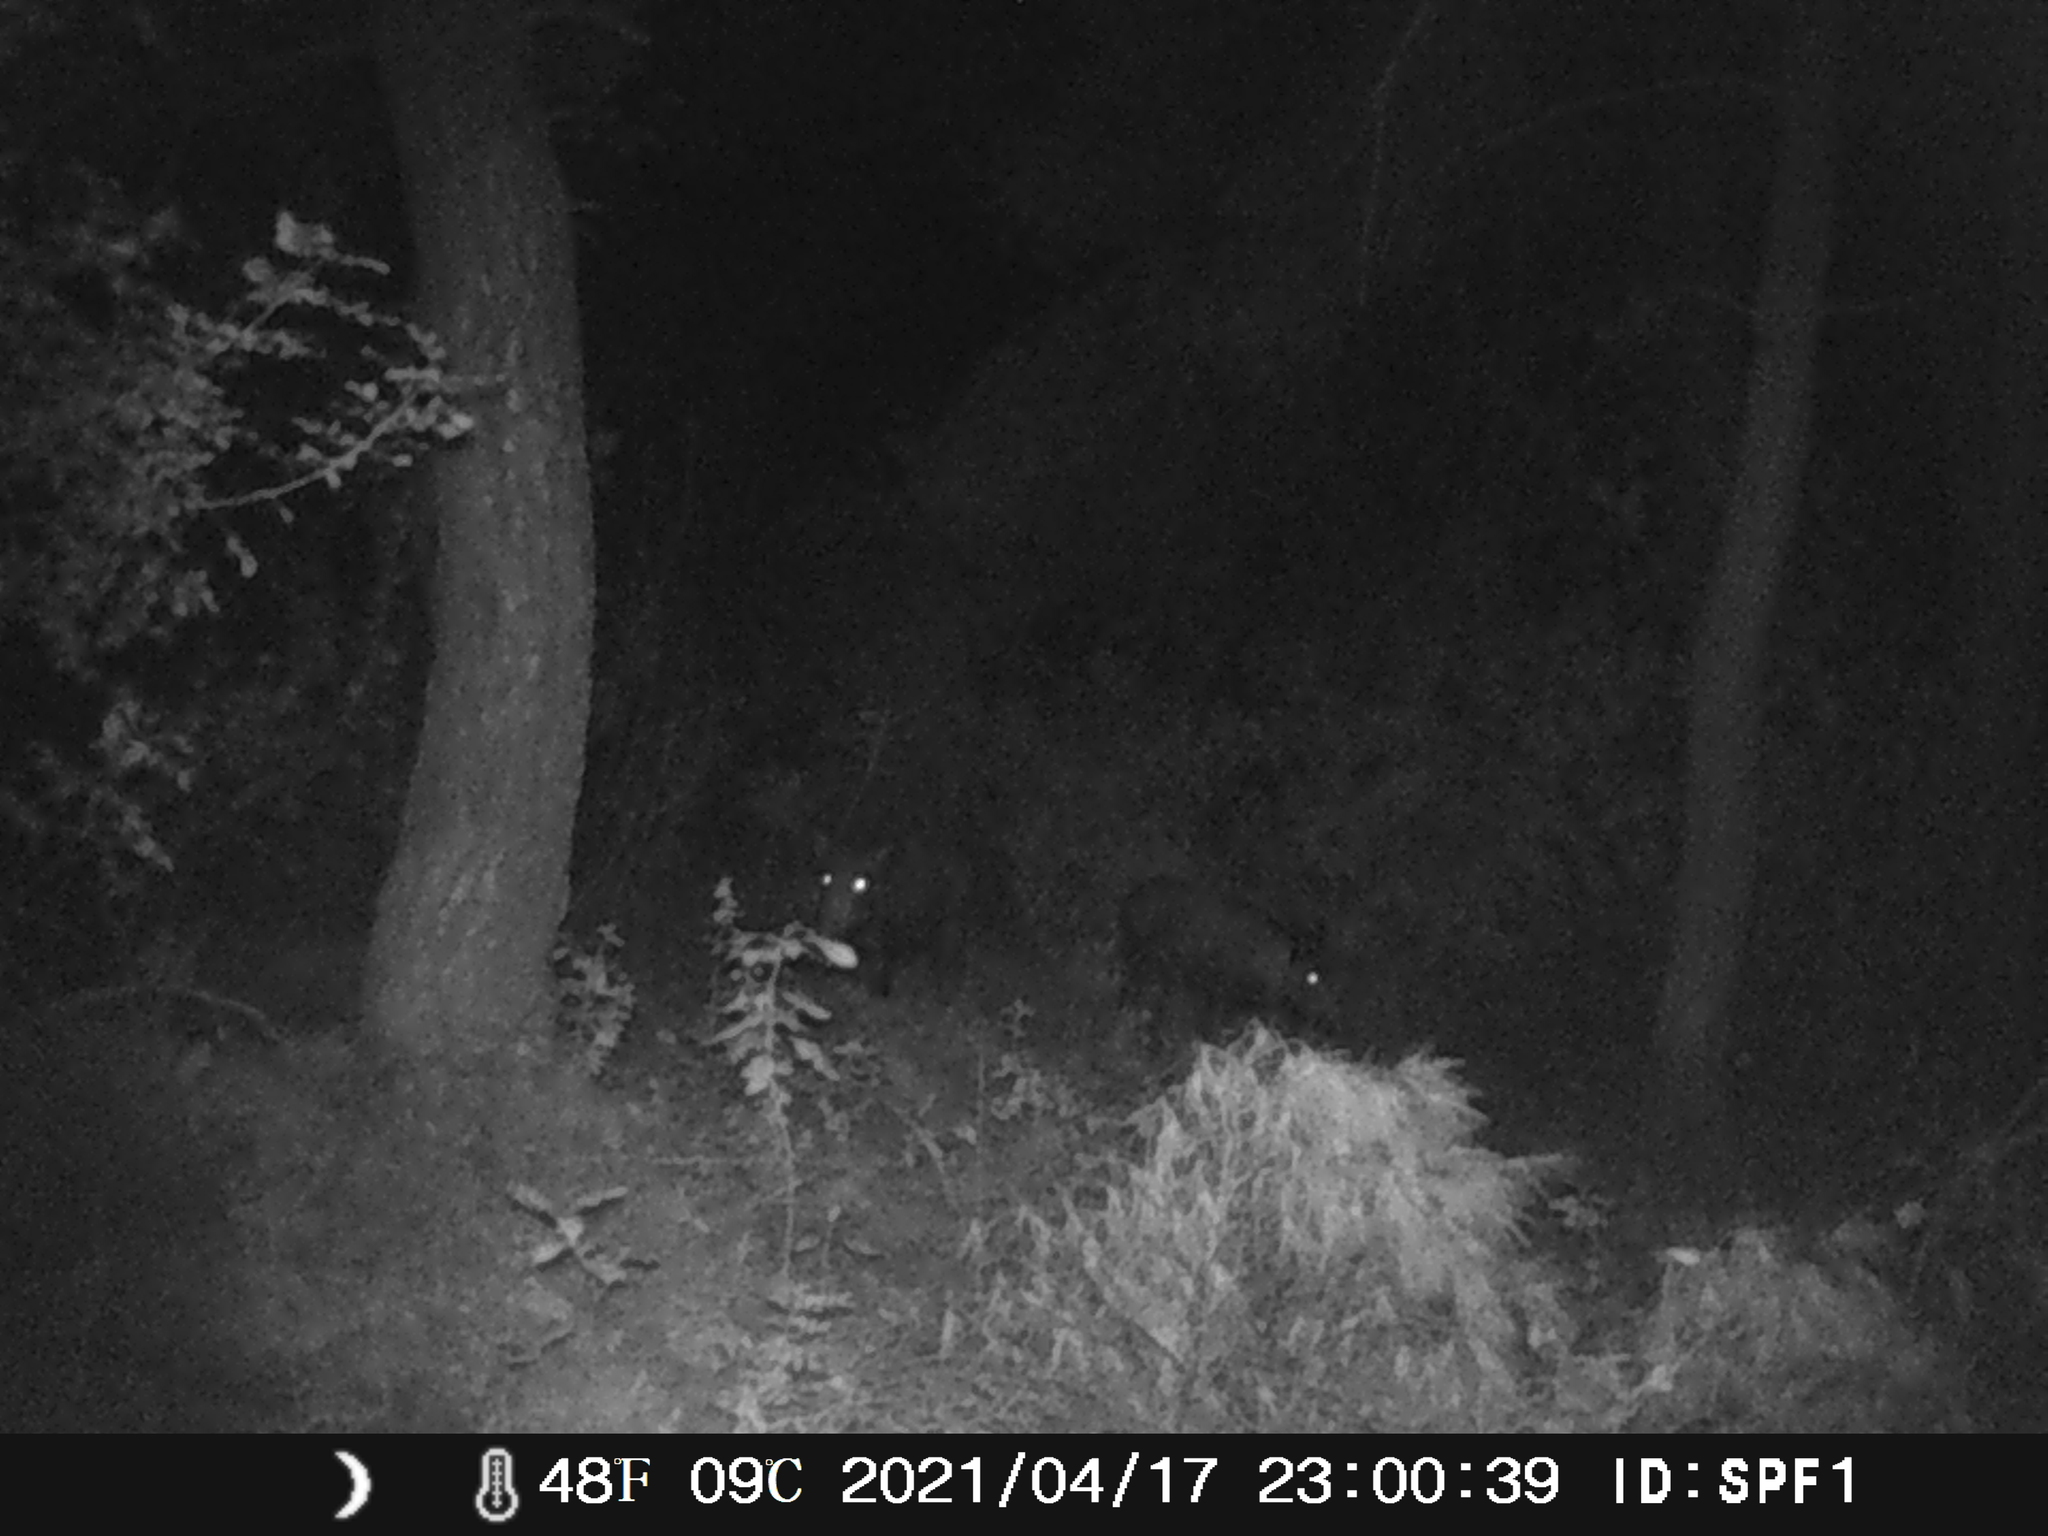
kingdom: Animalia
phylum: Chordata
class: Mammalia
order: Artiodactyla
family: Suidae
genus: Sus
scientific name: Sus scrofa
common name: Wild boar
